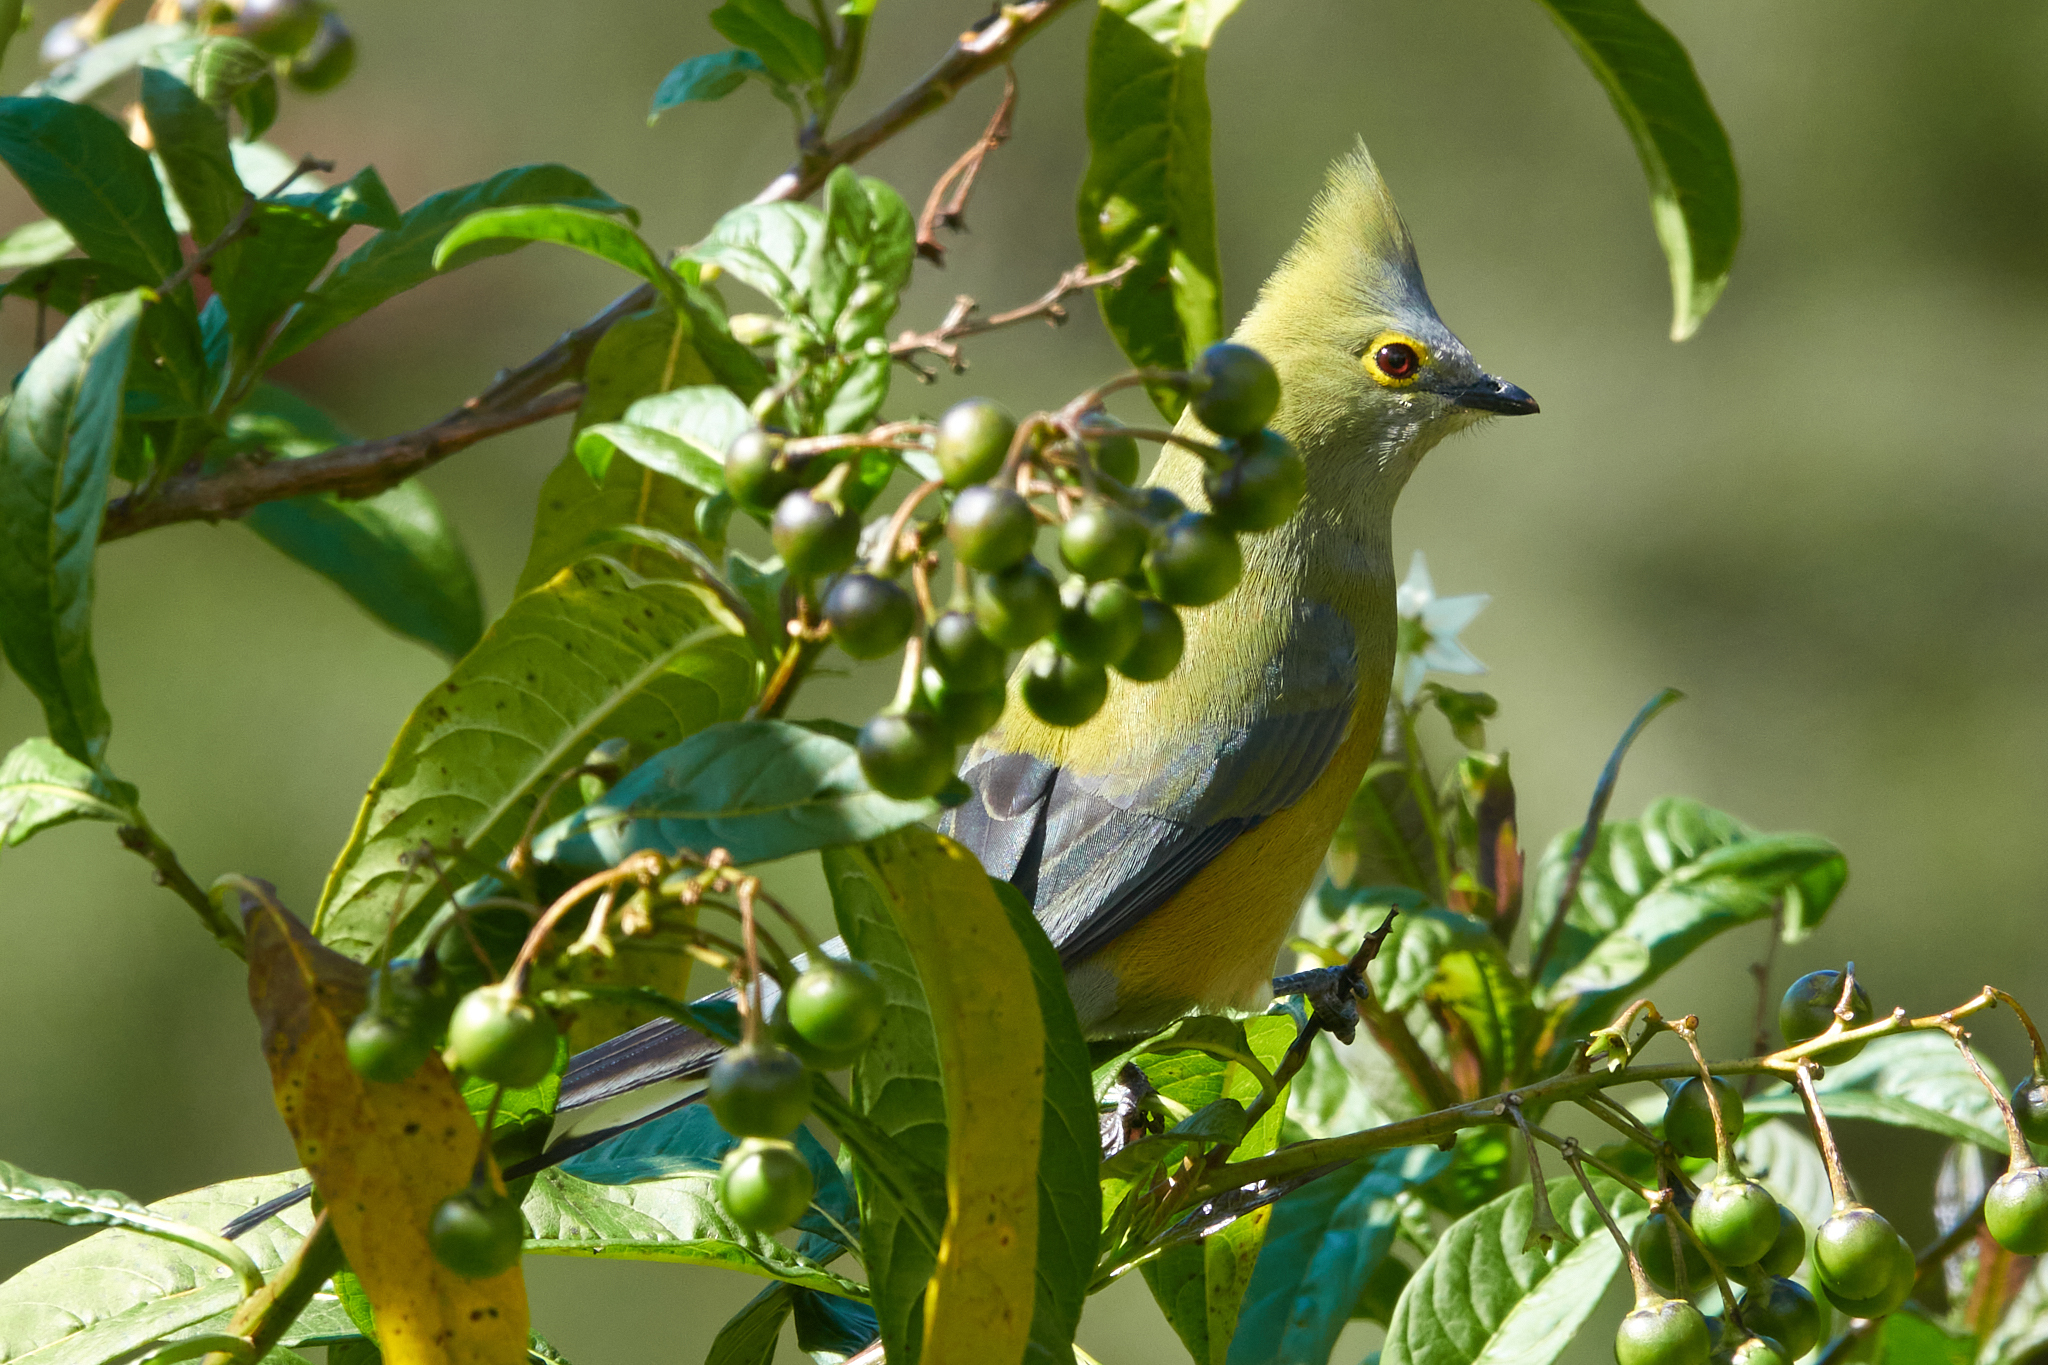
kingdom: Animalia
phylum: Chordata
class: Aves
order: Passeriformes
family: Ptilogonatidae
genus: Ptilogonys
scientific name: Ptilogonys caudatus
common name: Long-tailed silky-flycatcher
